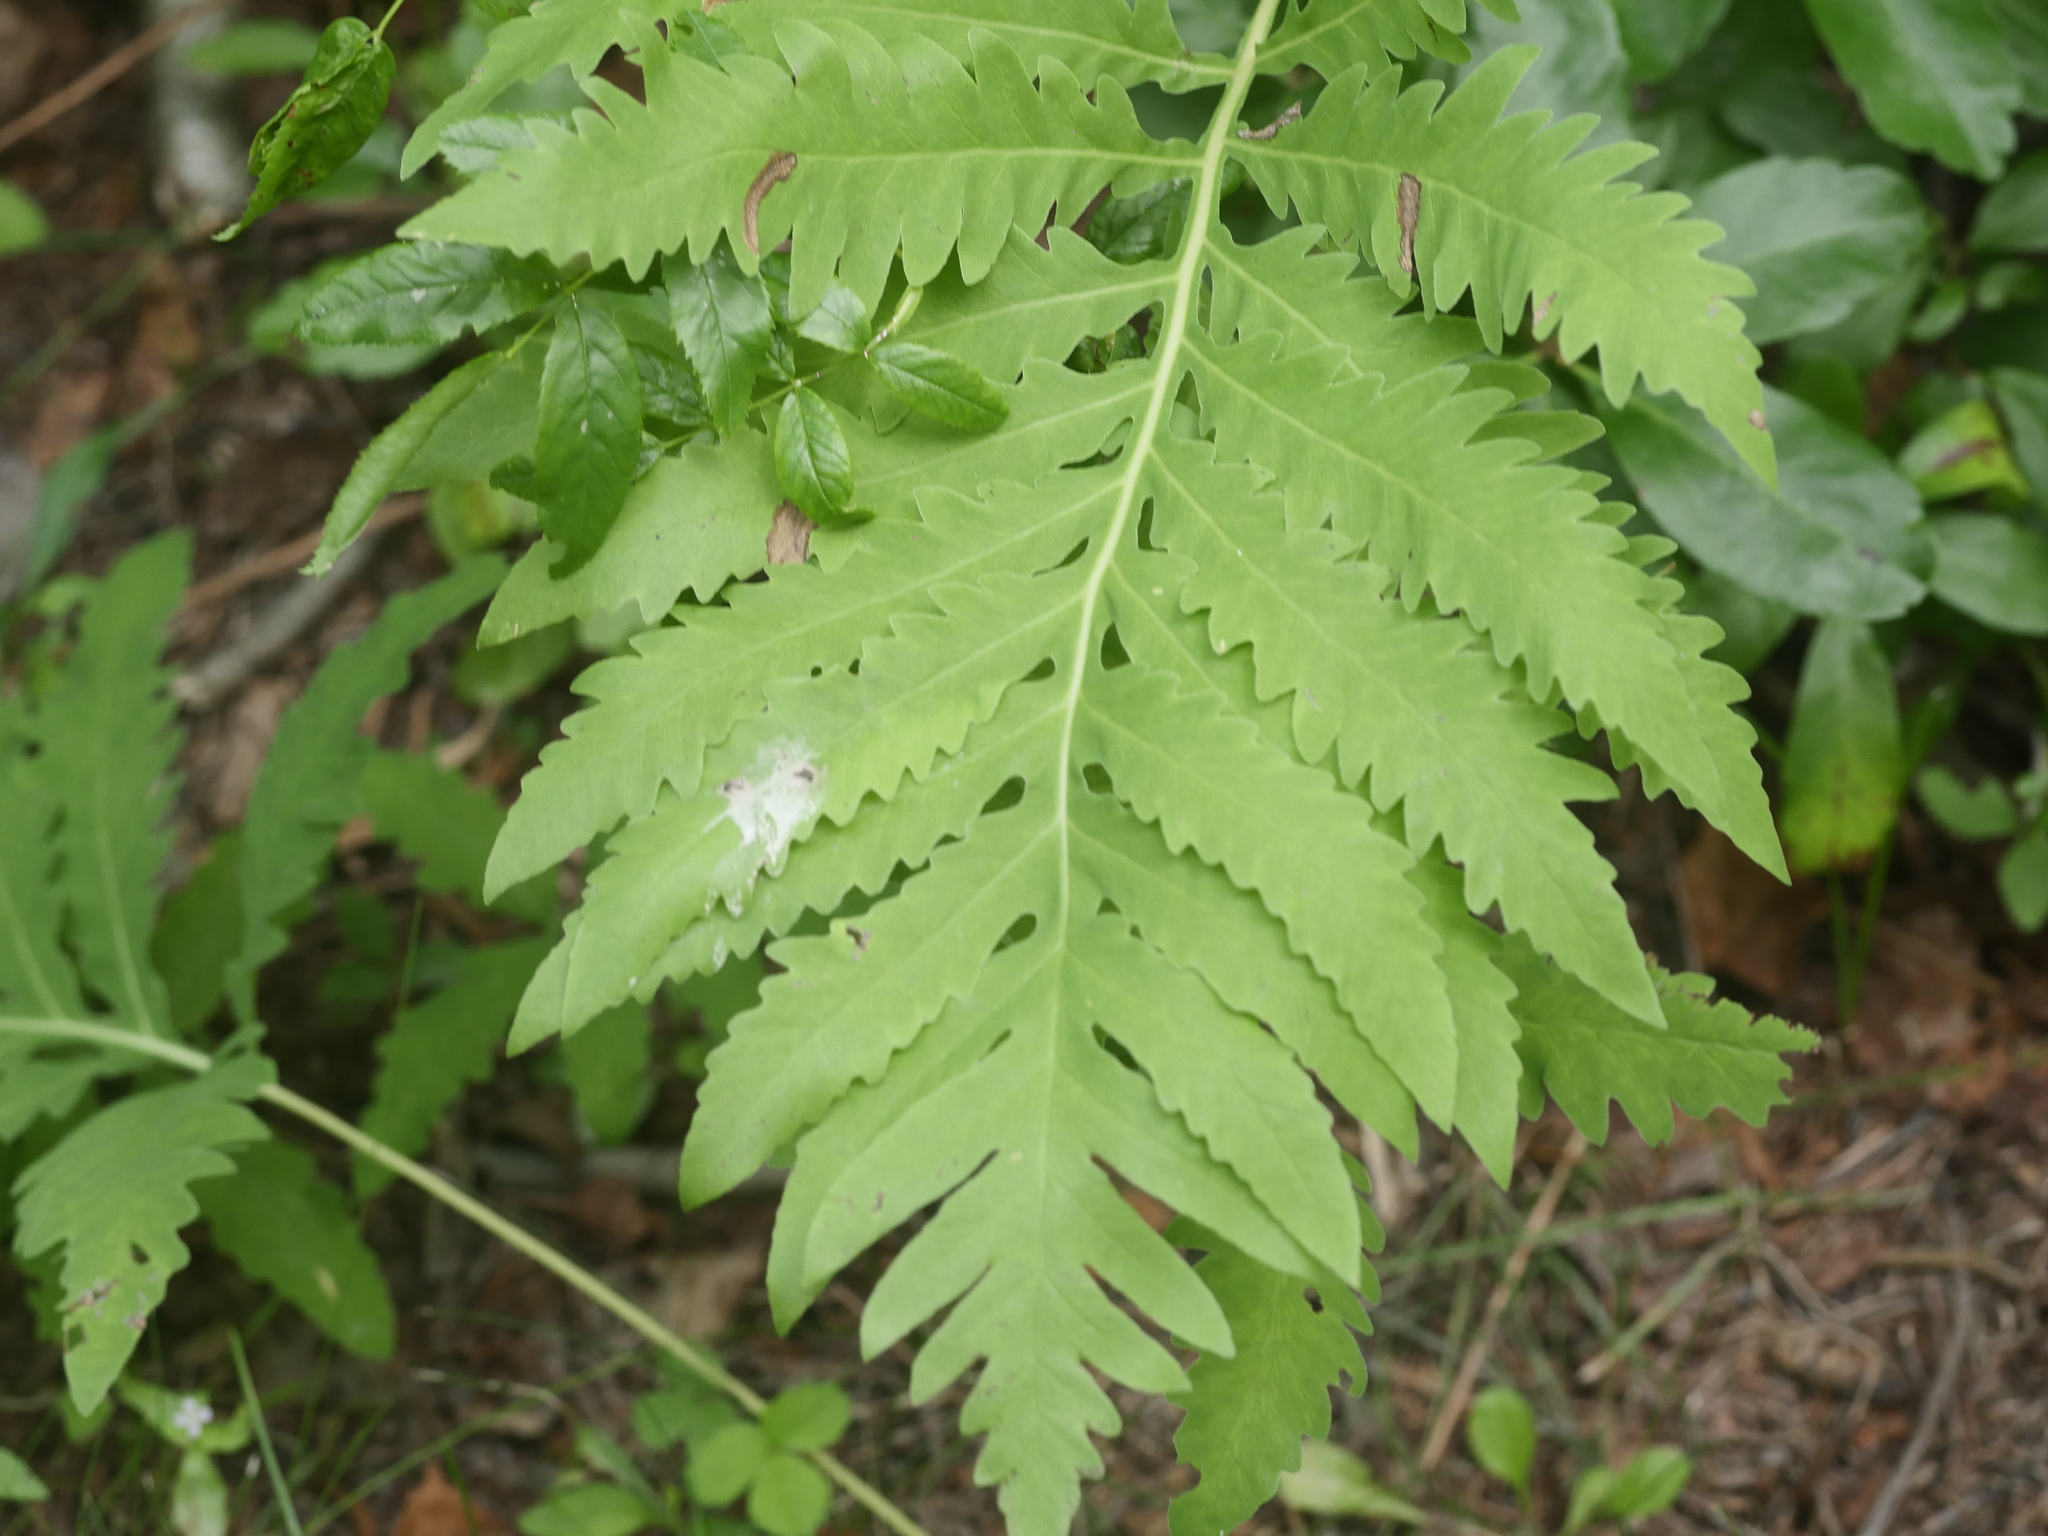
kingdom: Plantae
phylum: Tracheophyta
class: Polypodiopsida
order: Polypodiales
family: Onocleaceae
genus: Onoclea
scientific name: Onoclea sensibilis
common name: Sensitive fern
